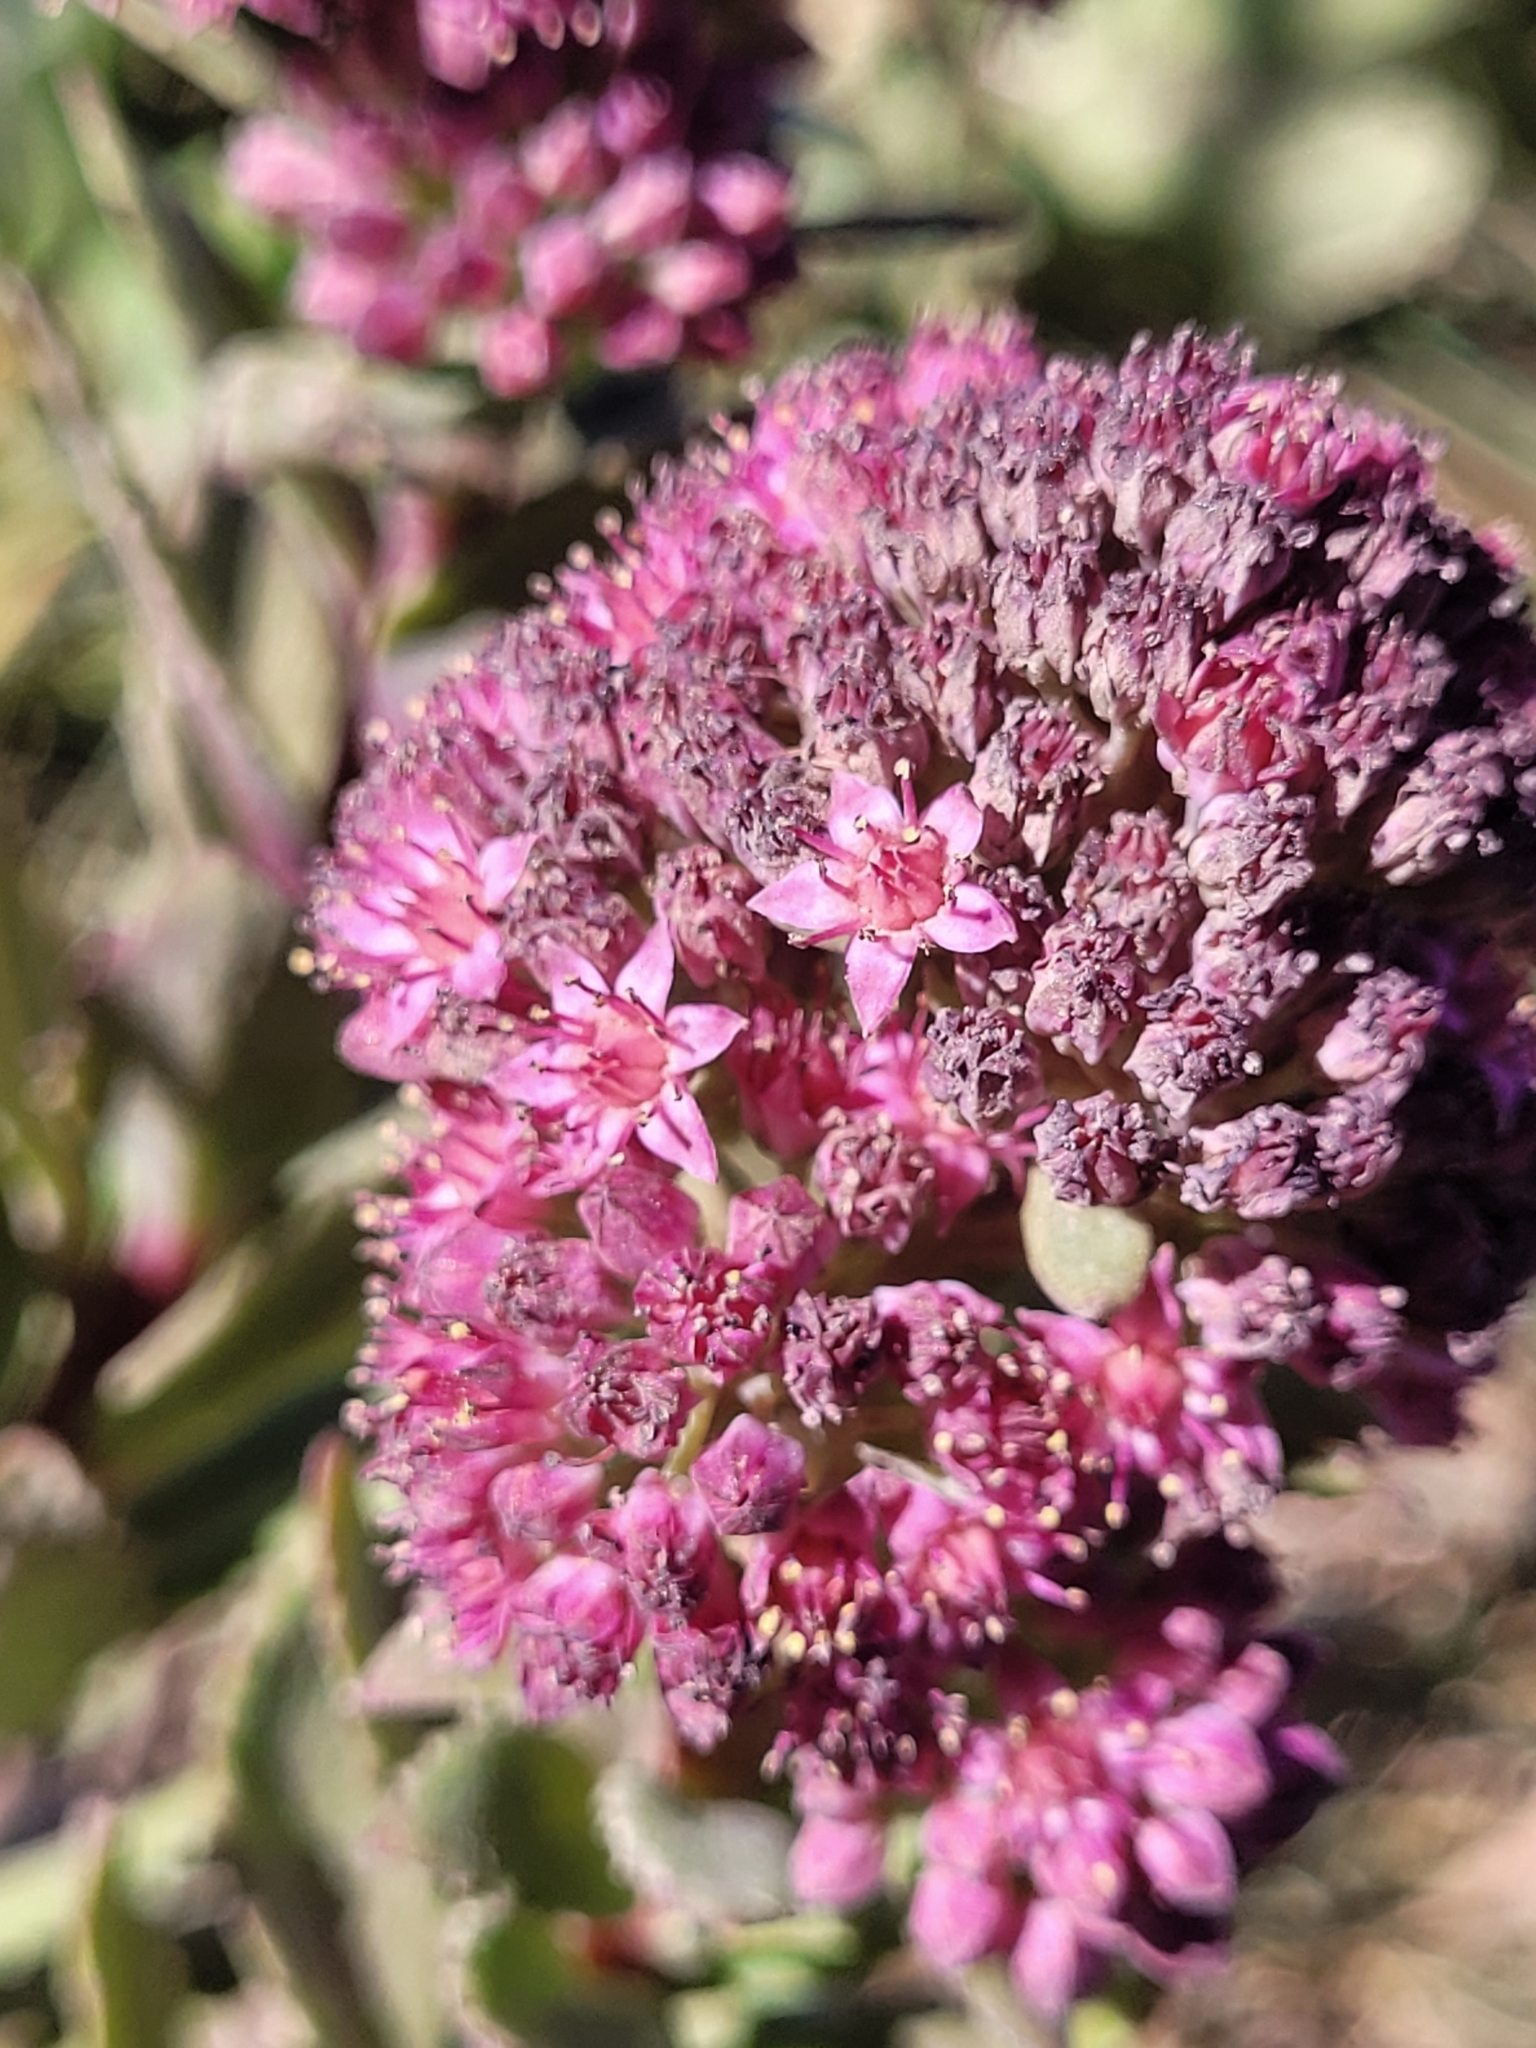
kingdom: Plantae
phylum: Tracheophyta
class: Magnoliopsida
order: Saxifragales
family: Crassulaceae
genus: Hylotelephium
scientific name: Hylotelephium telephium
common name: Live-forever
